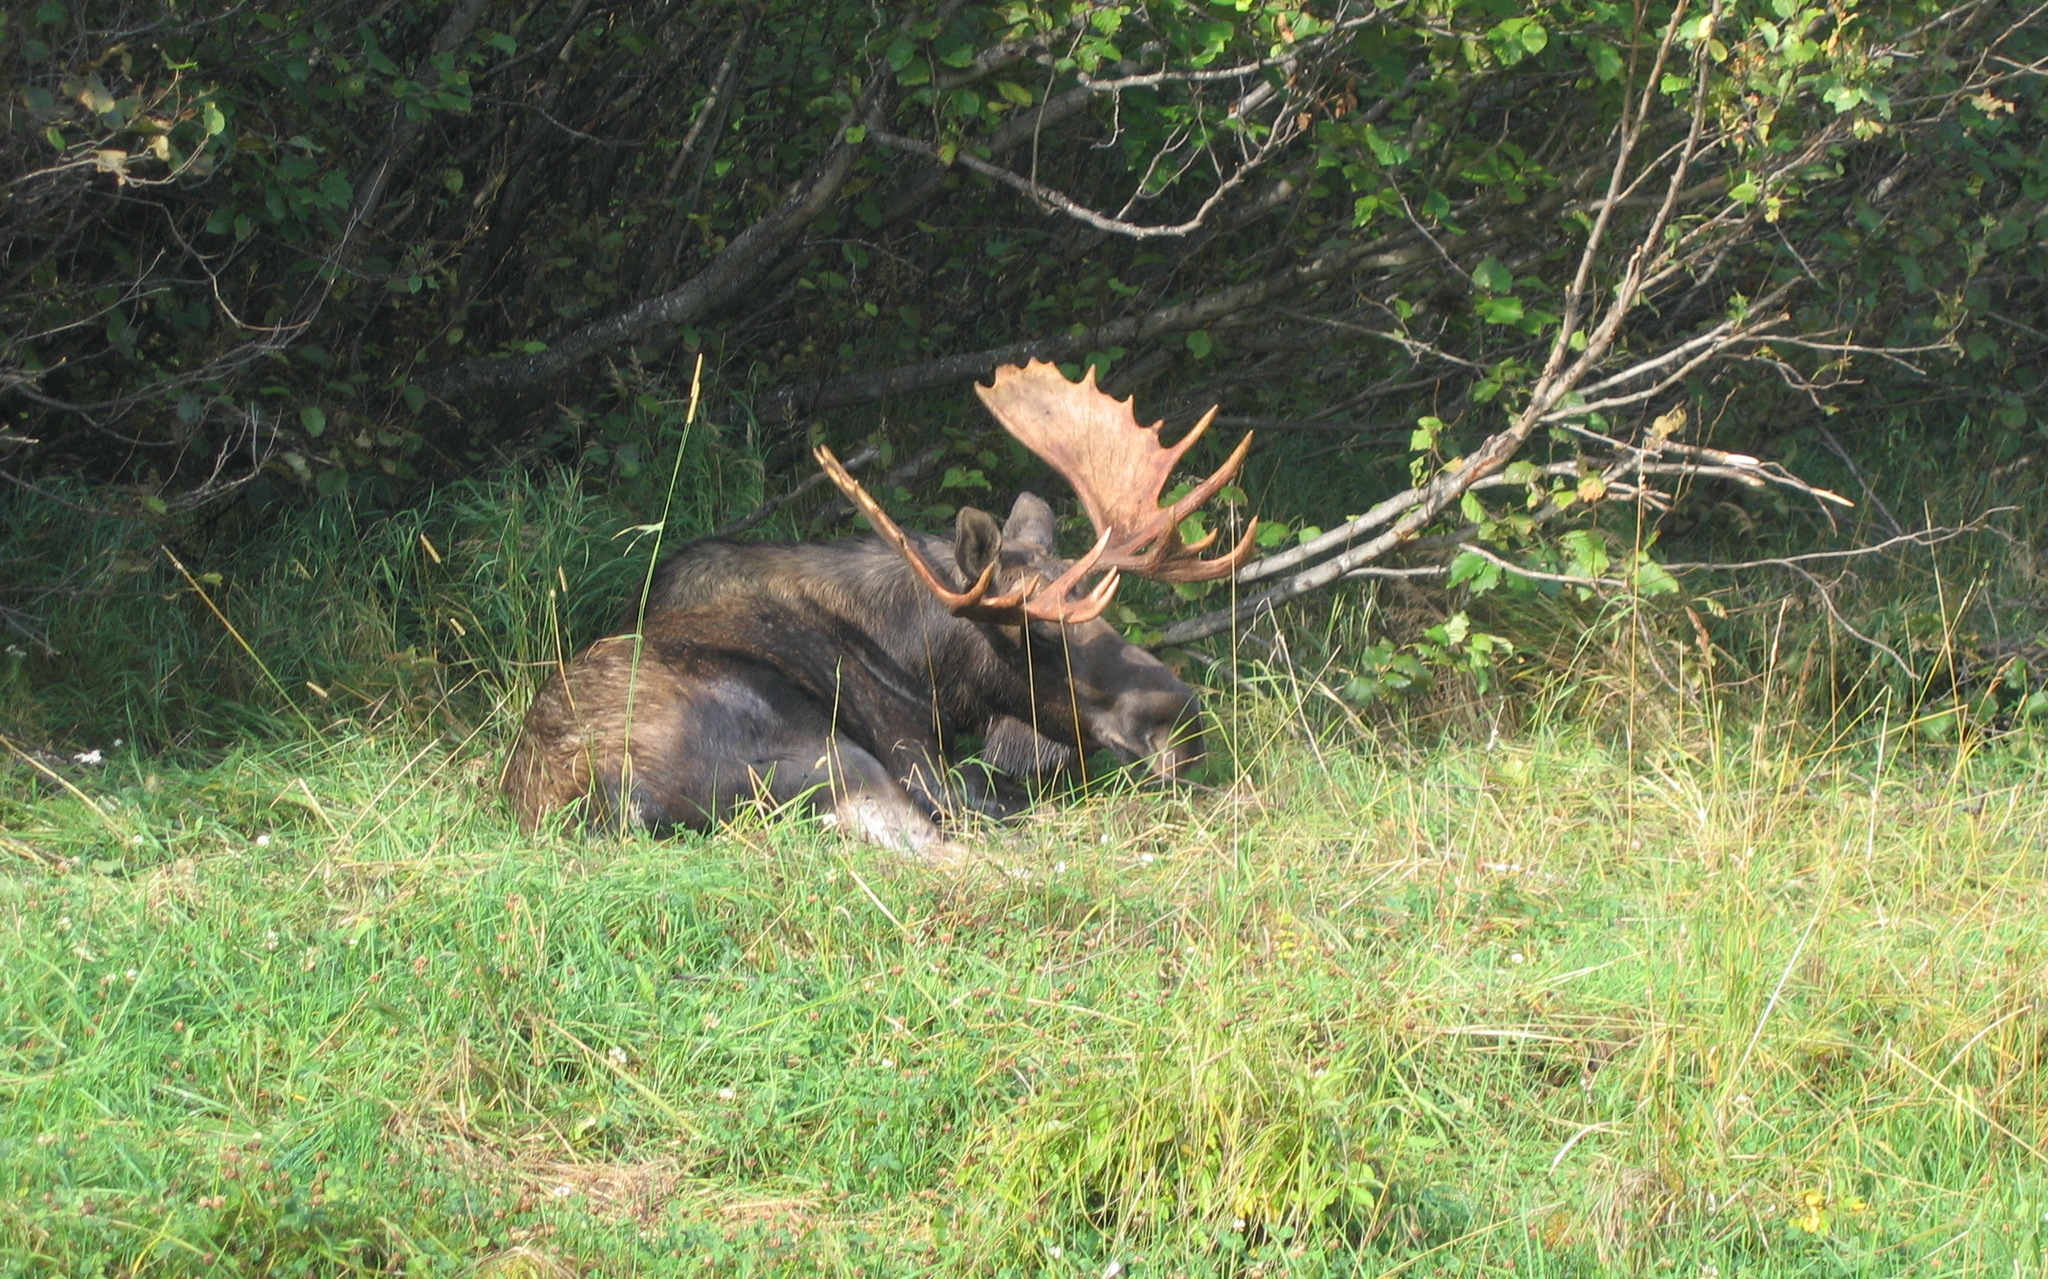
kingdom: Animalia
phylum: Chordata
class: Mammalia
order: Artiodactyla
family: Cervidae
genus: Alces
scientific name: Alces alces
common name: Moose
